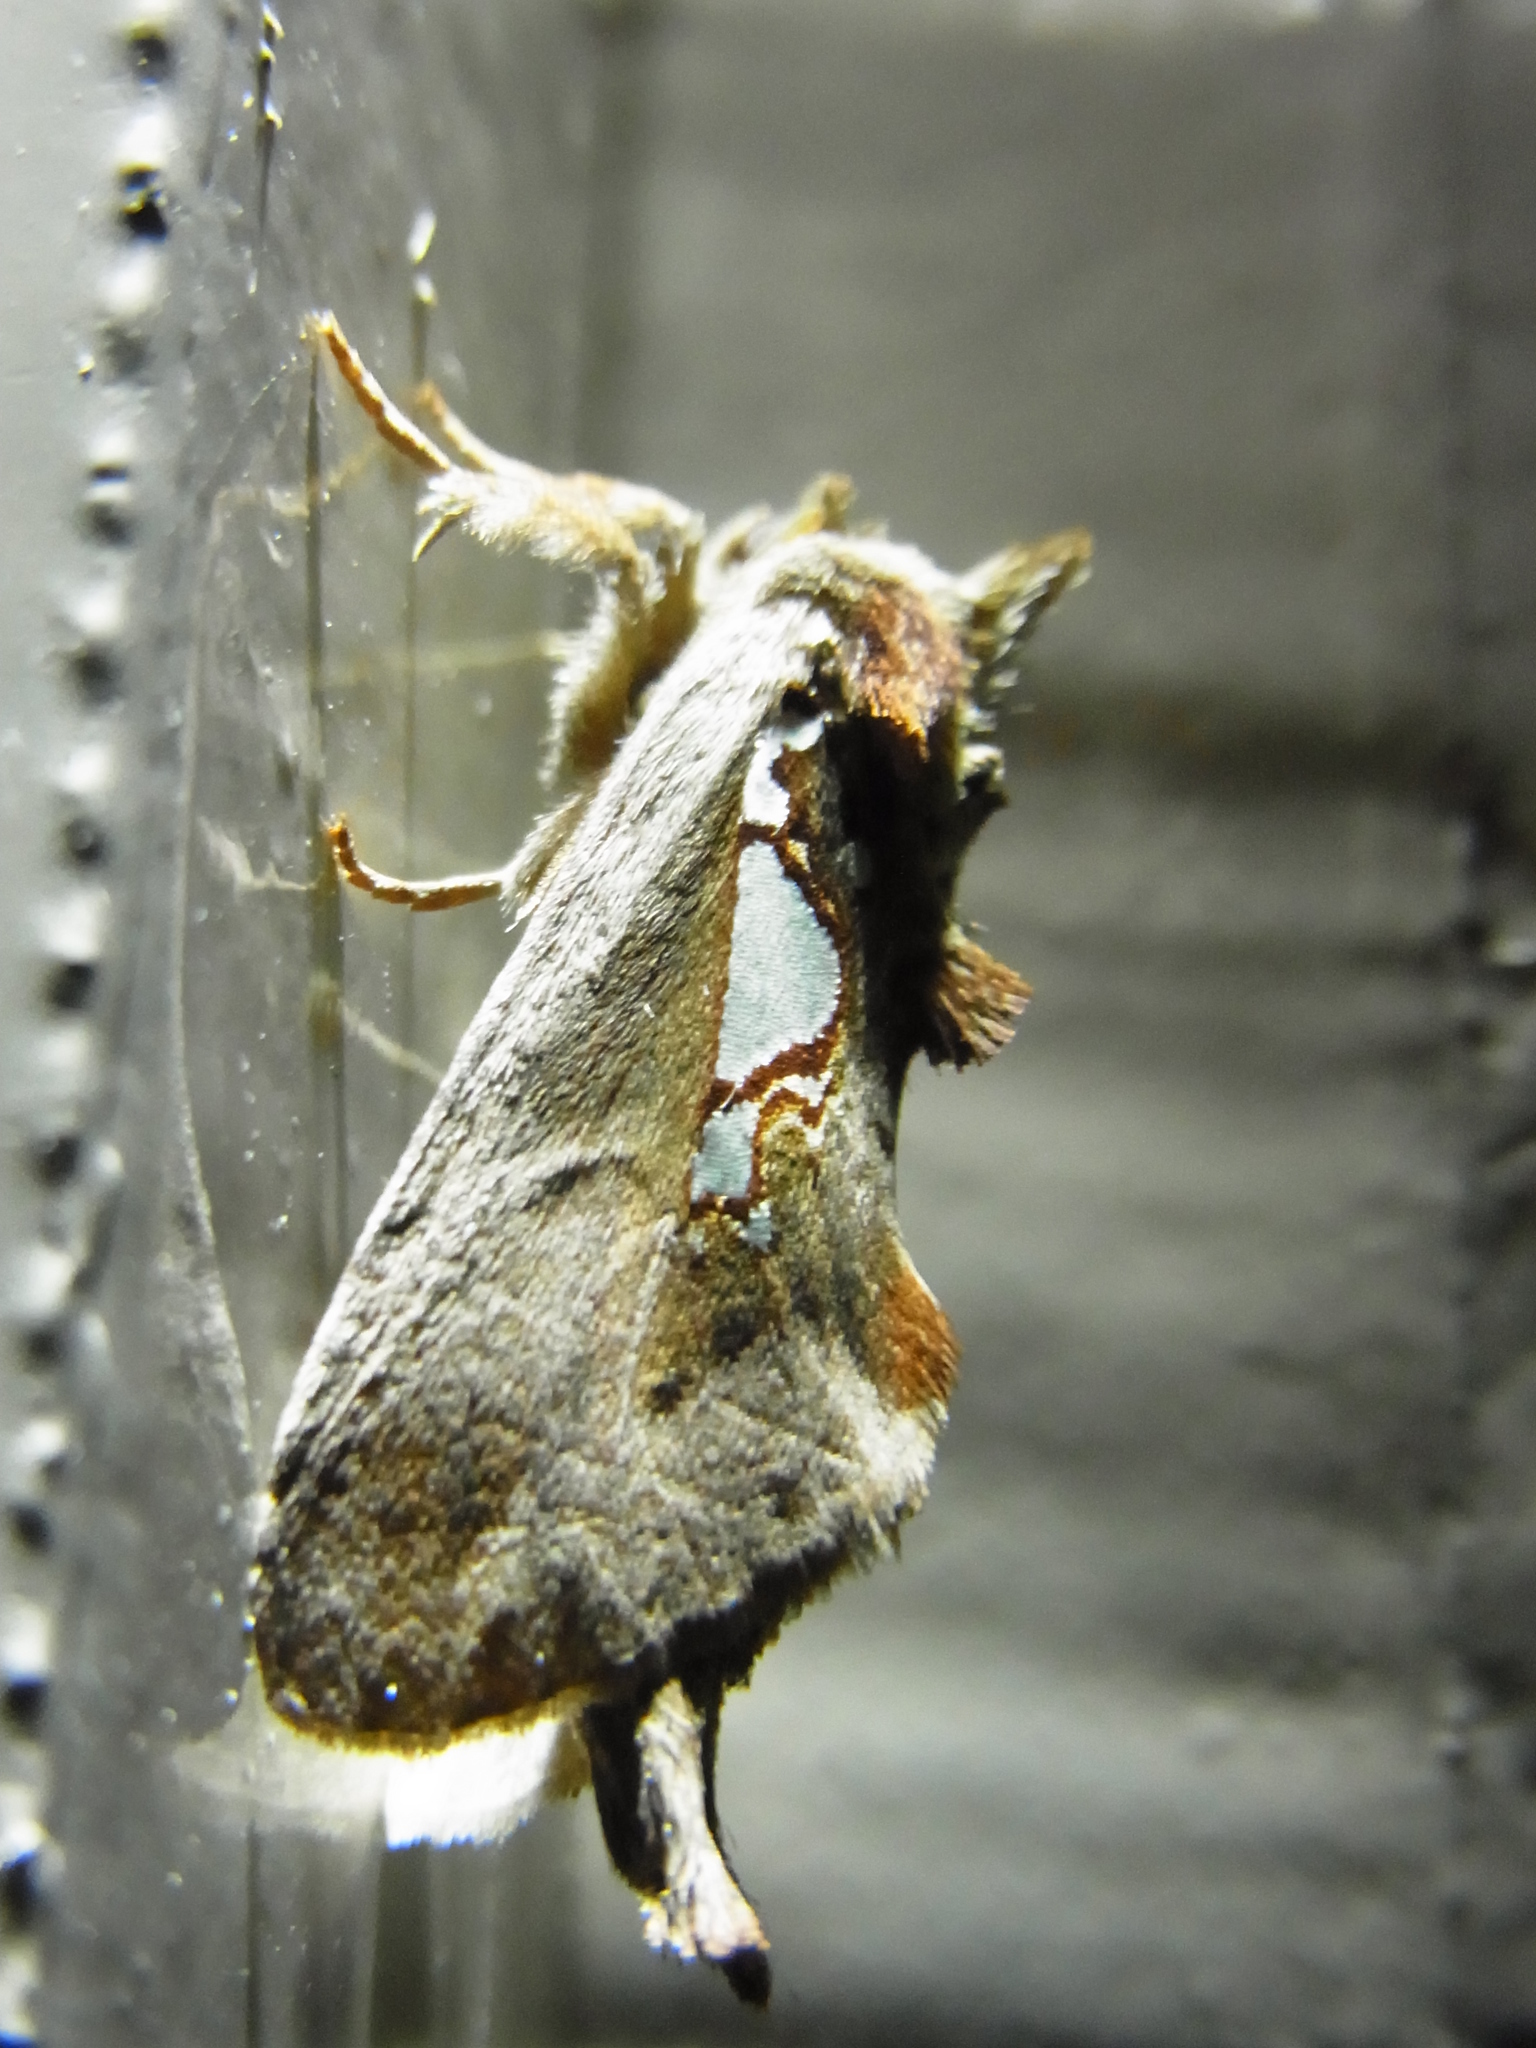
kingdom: Animalia
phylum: Arthropoda
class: Insecta
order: Lepidoptera
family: Notodontidae
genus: Spatalia
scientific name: Spatalia doerriesi
